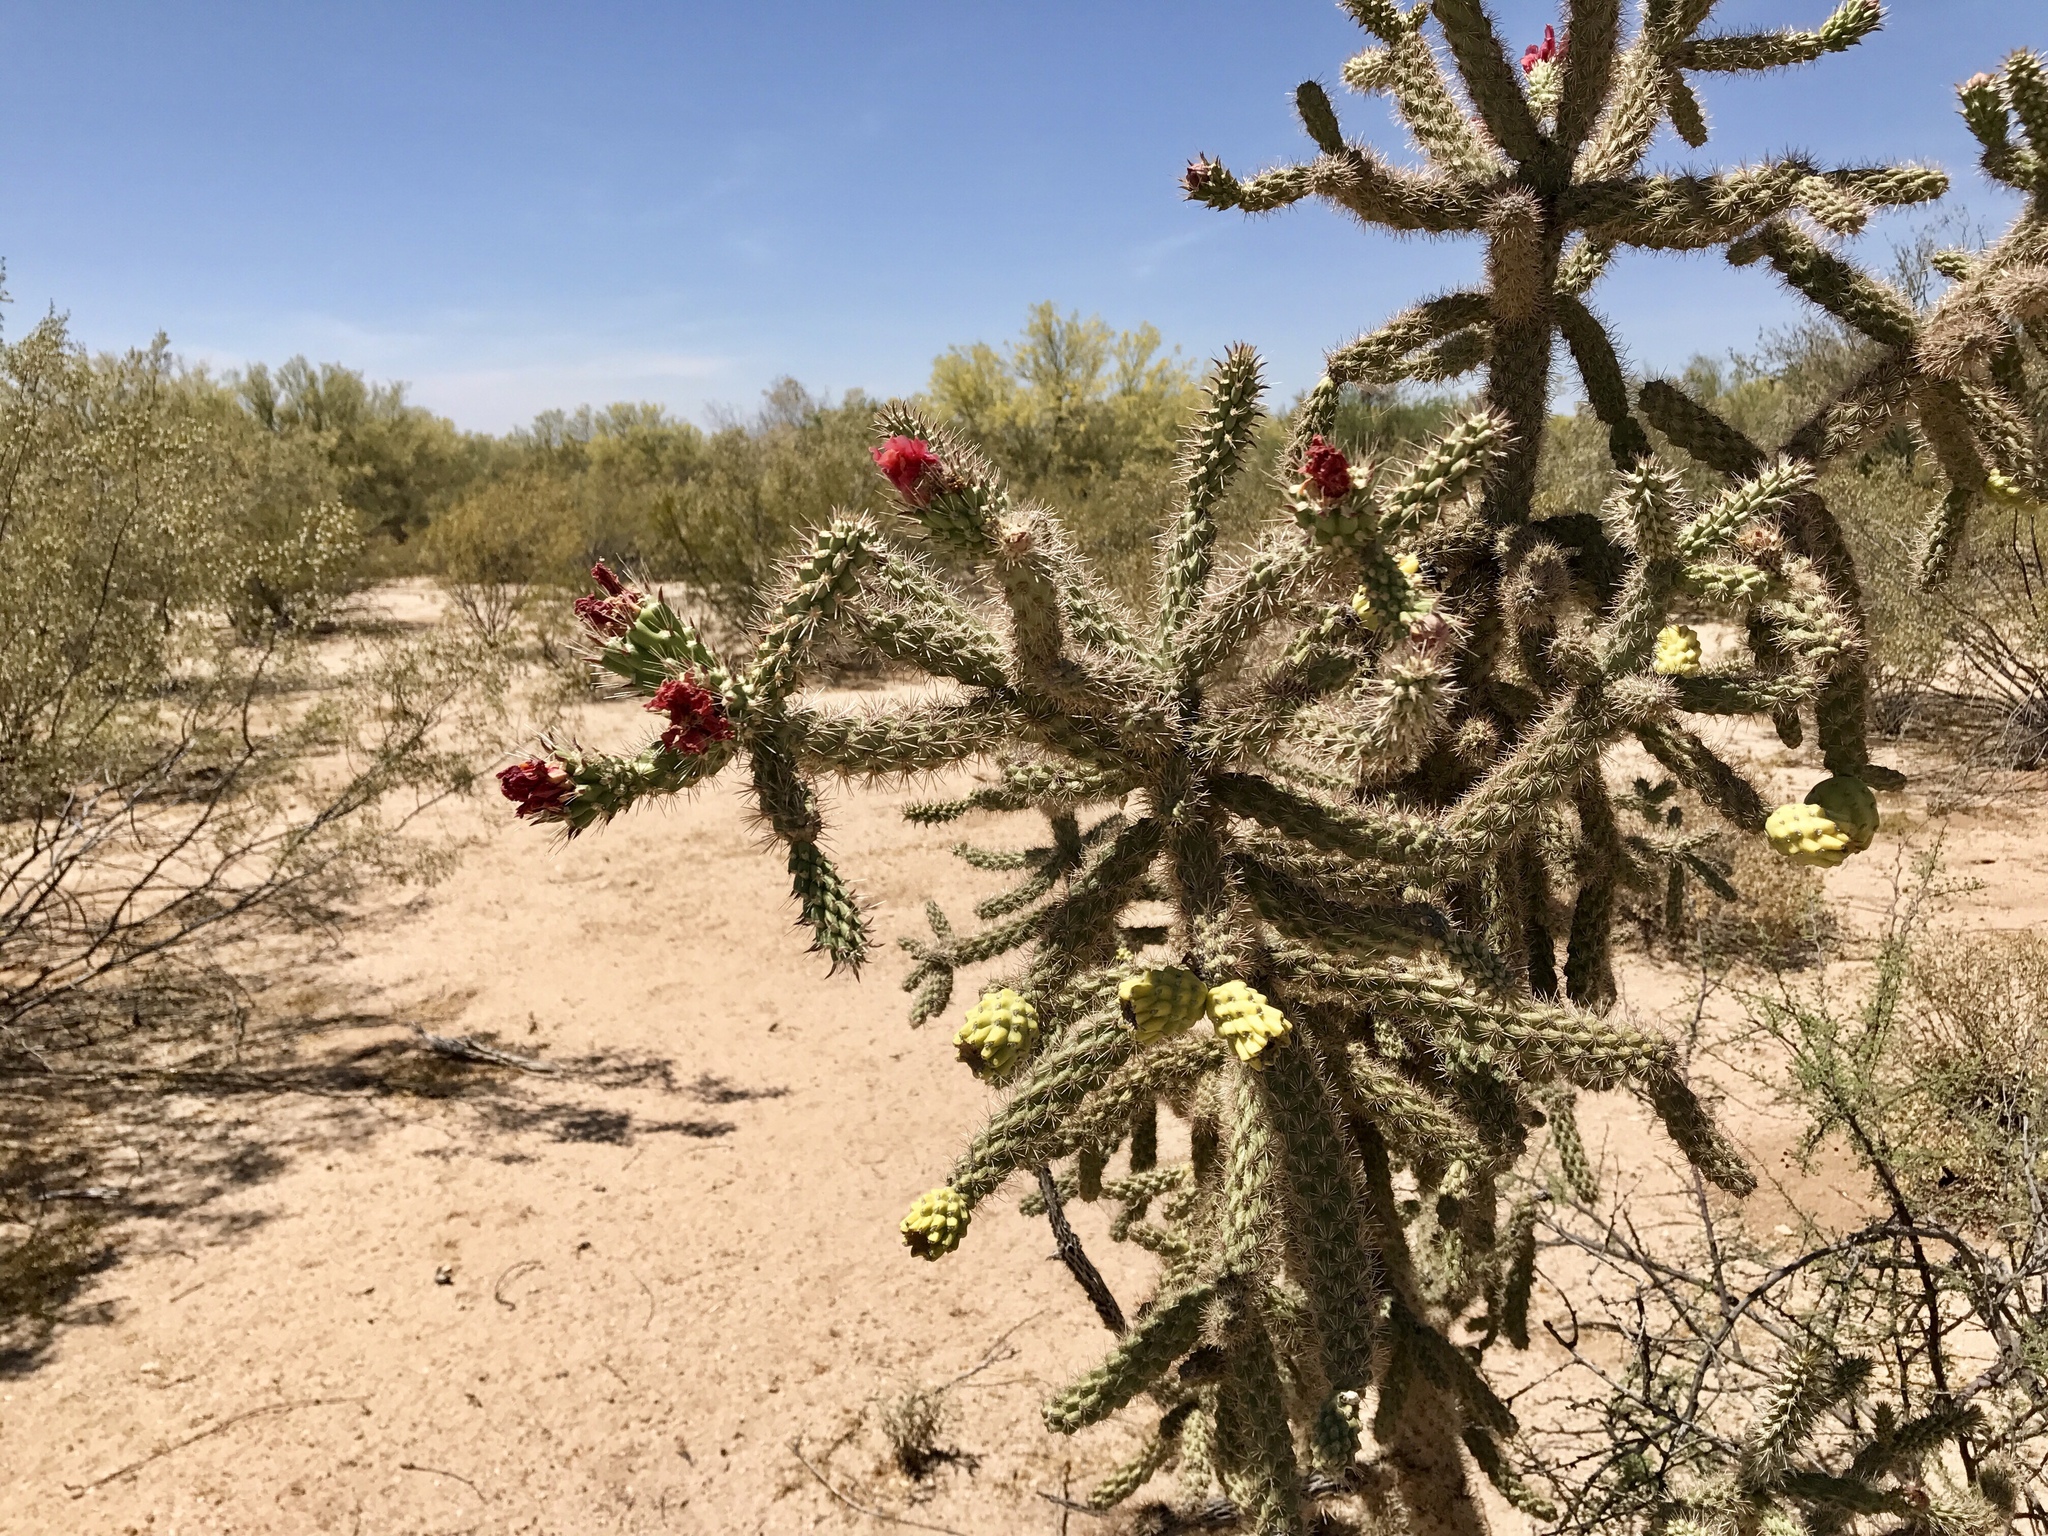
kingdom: Plantae
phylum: Tracheophyta
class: Magnoliopsida
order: Caryophyllales
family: Cactaceae
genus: Cylindropuntia
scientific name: Cylindropuntia imbricata
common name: Candelabrum cactus
